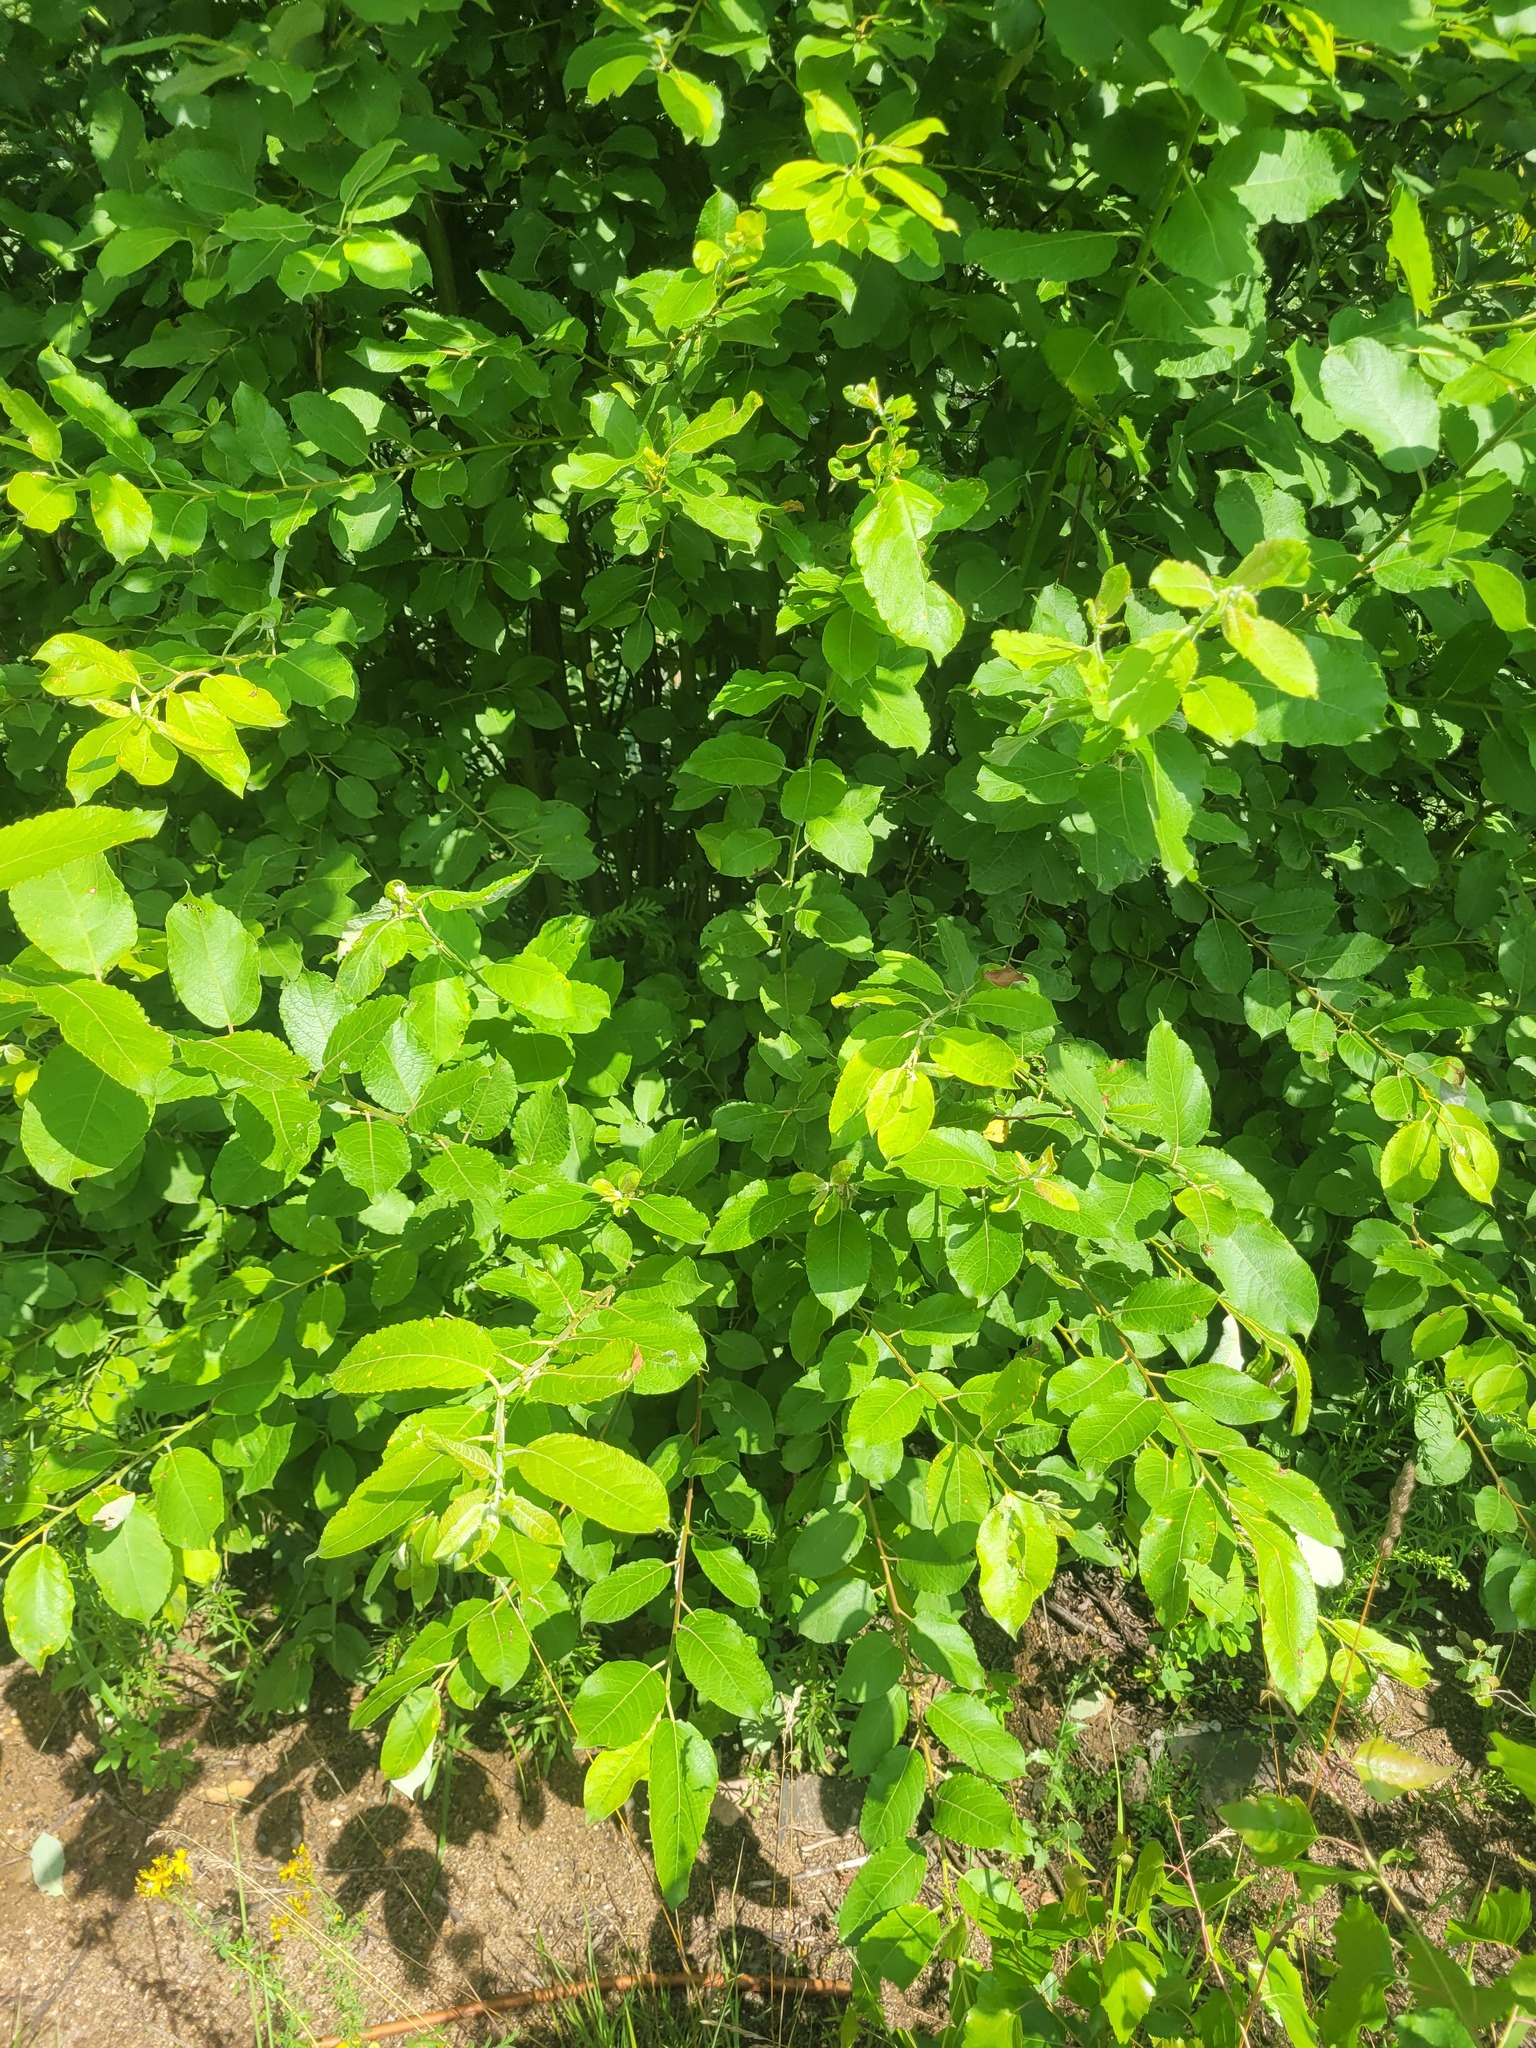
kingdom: Plantae
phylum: Tracheophyta
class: Magnoliopsida
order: Malpighiales
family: Salicaceae
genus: Salix
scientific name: Salix caprea
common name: Goat willow
